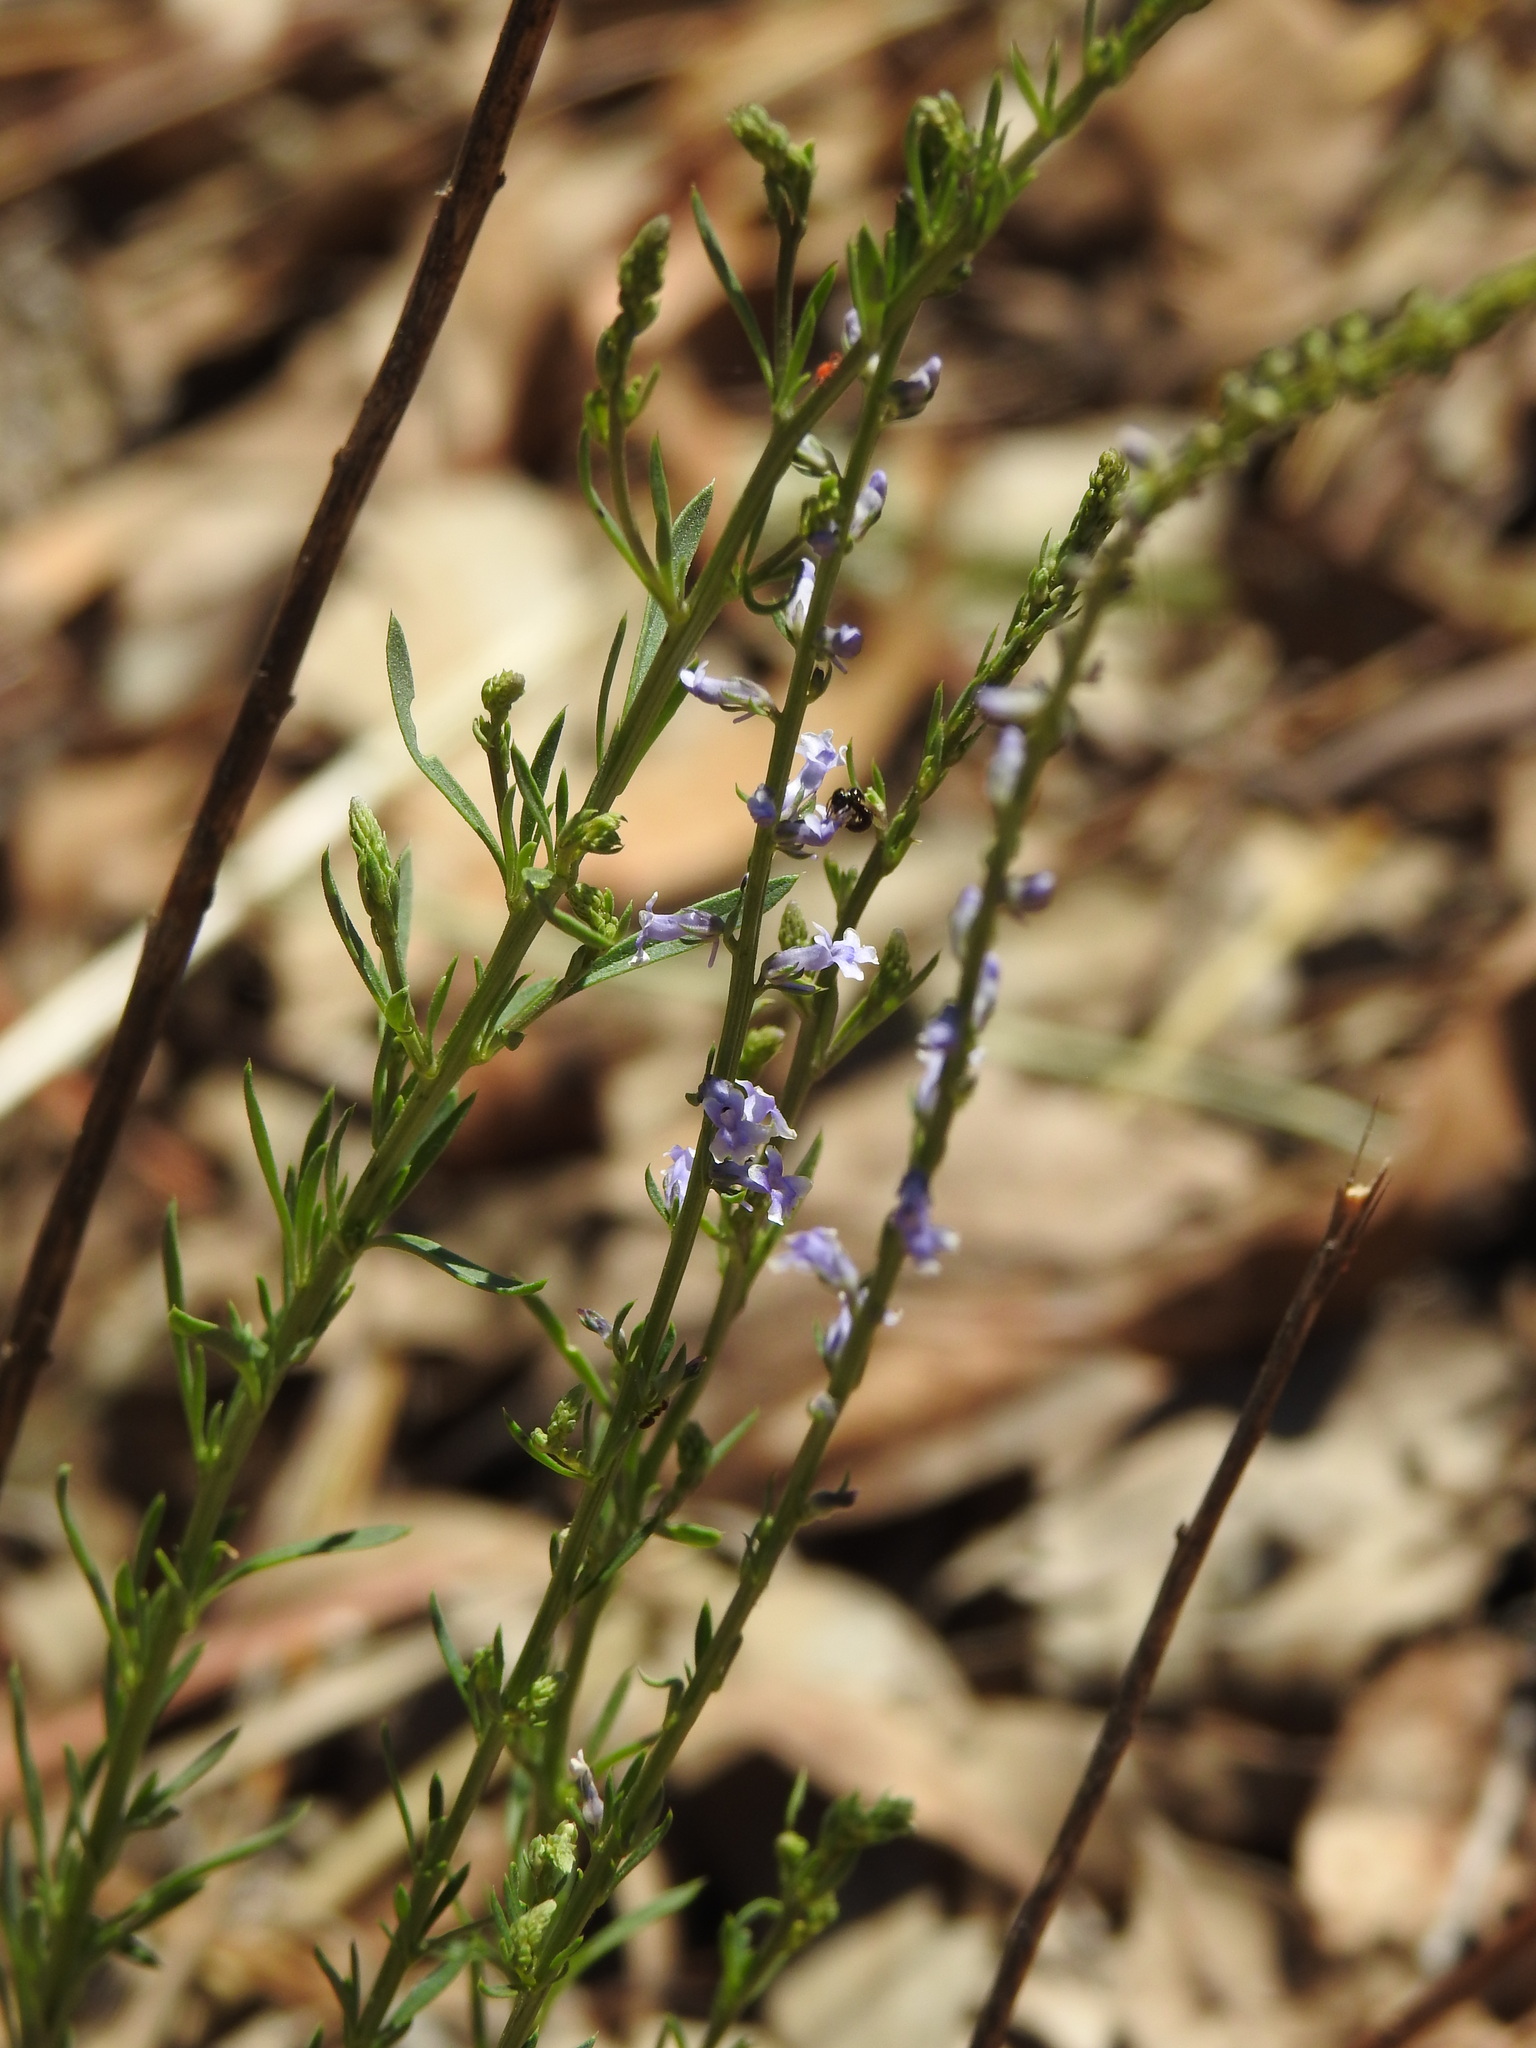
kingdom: Plantae
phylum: Tracheophyta
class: Magnoliopsida
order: Lamiales
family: Plantaginaceae
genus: Anarrhinum
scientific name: Anarrhinum bellidifolium
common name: Daisy-leaved toadflax
